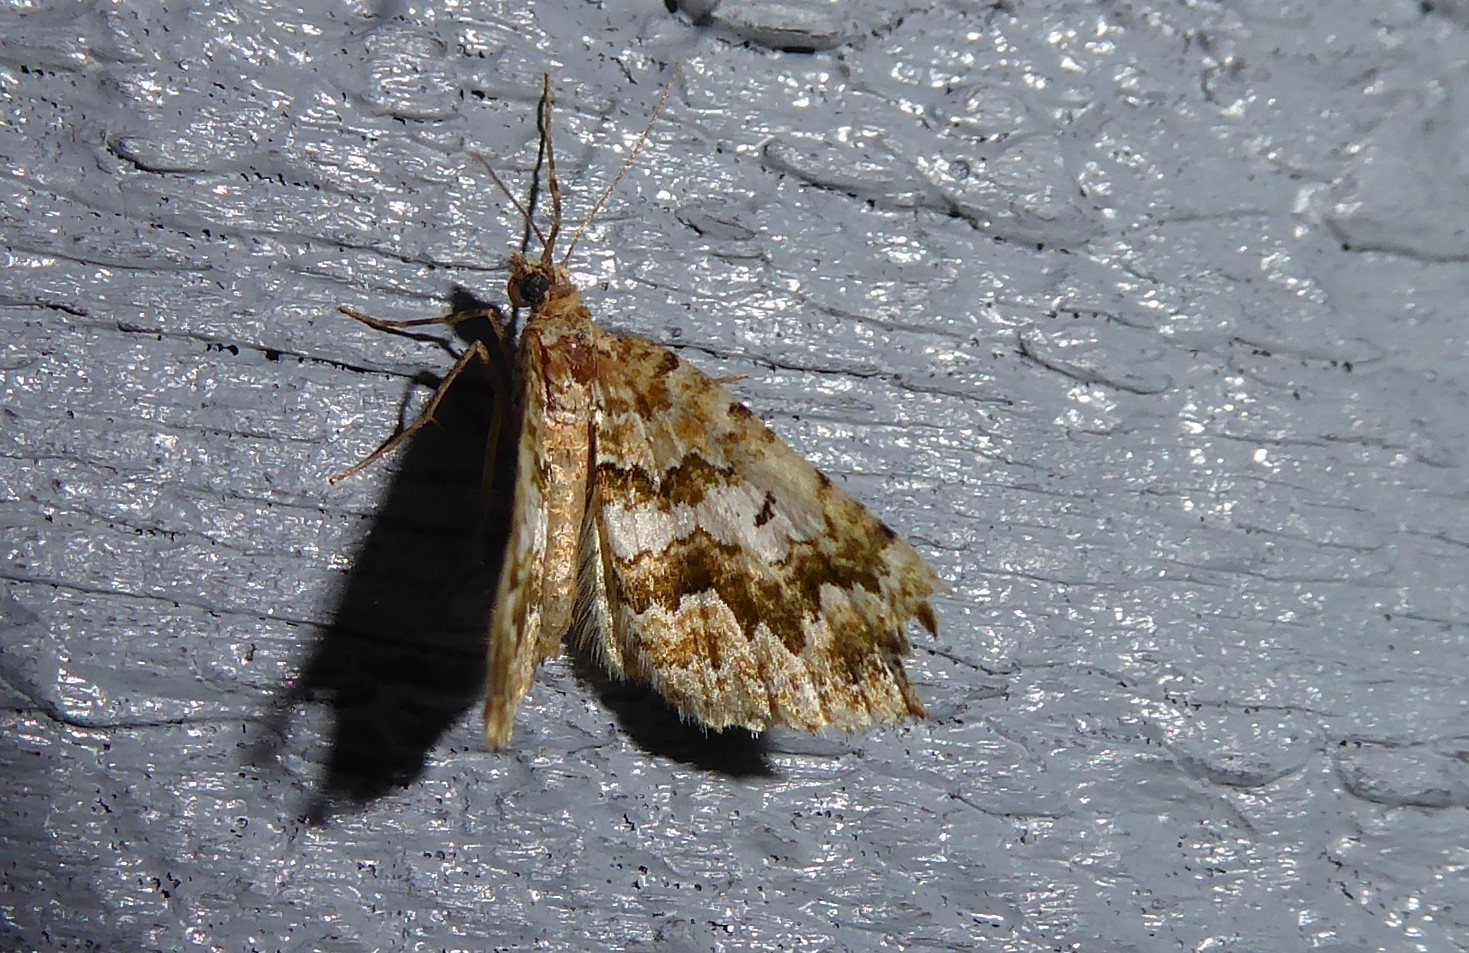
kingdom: Animalia
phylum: Arthropoda
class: Insecta
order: Lepidoptera
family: Geometridae
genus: Asaphodes
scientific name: Asaphodes beata
